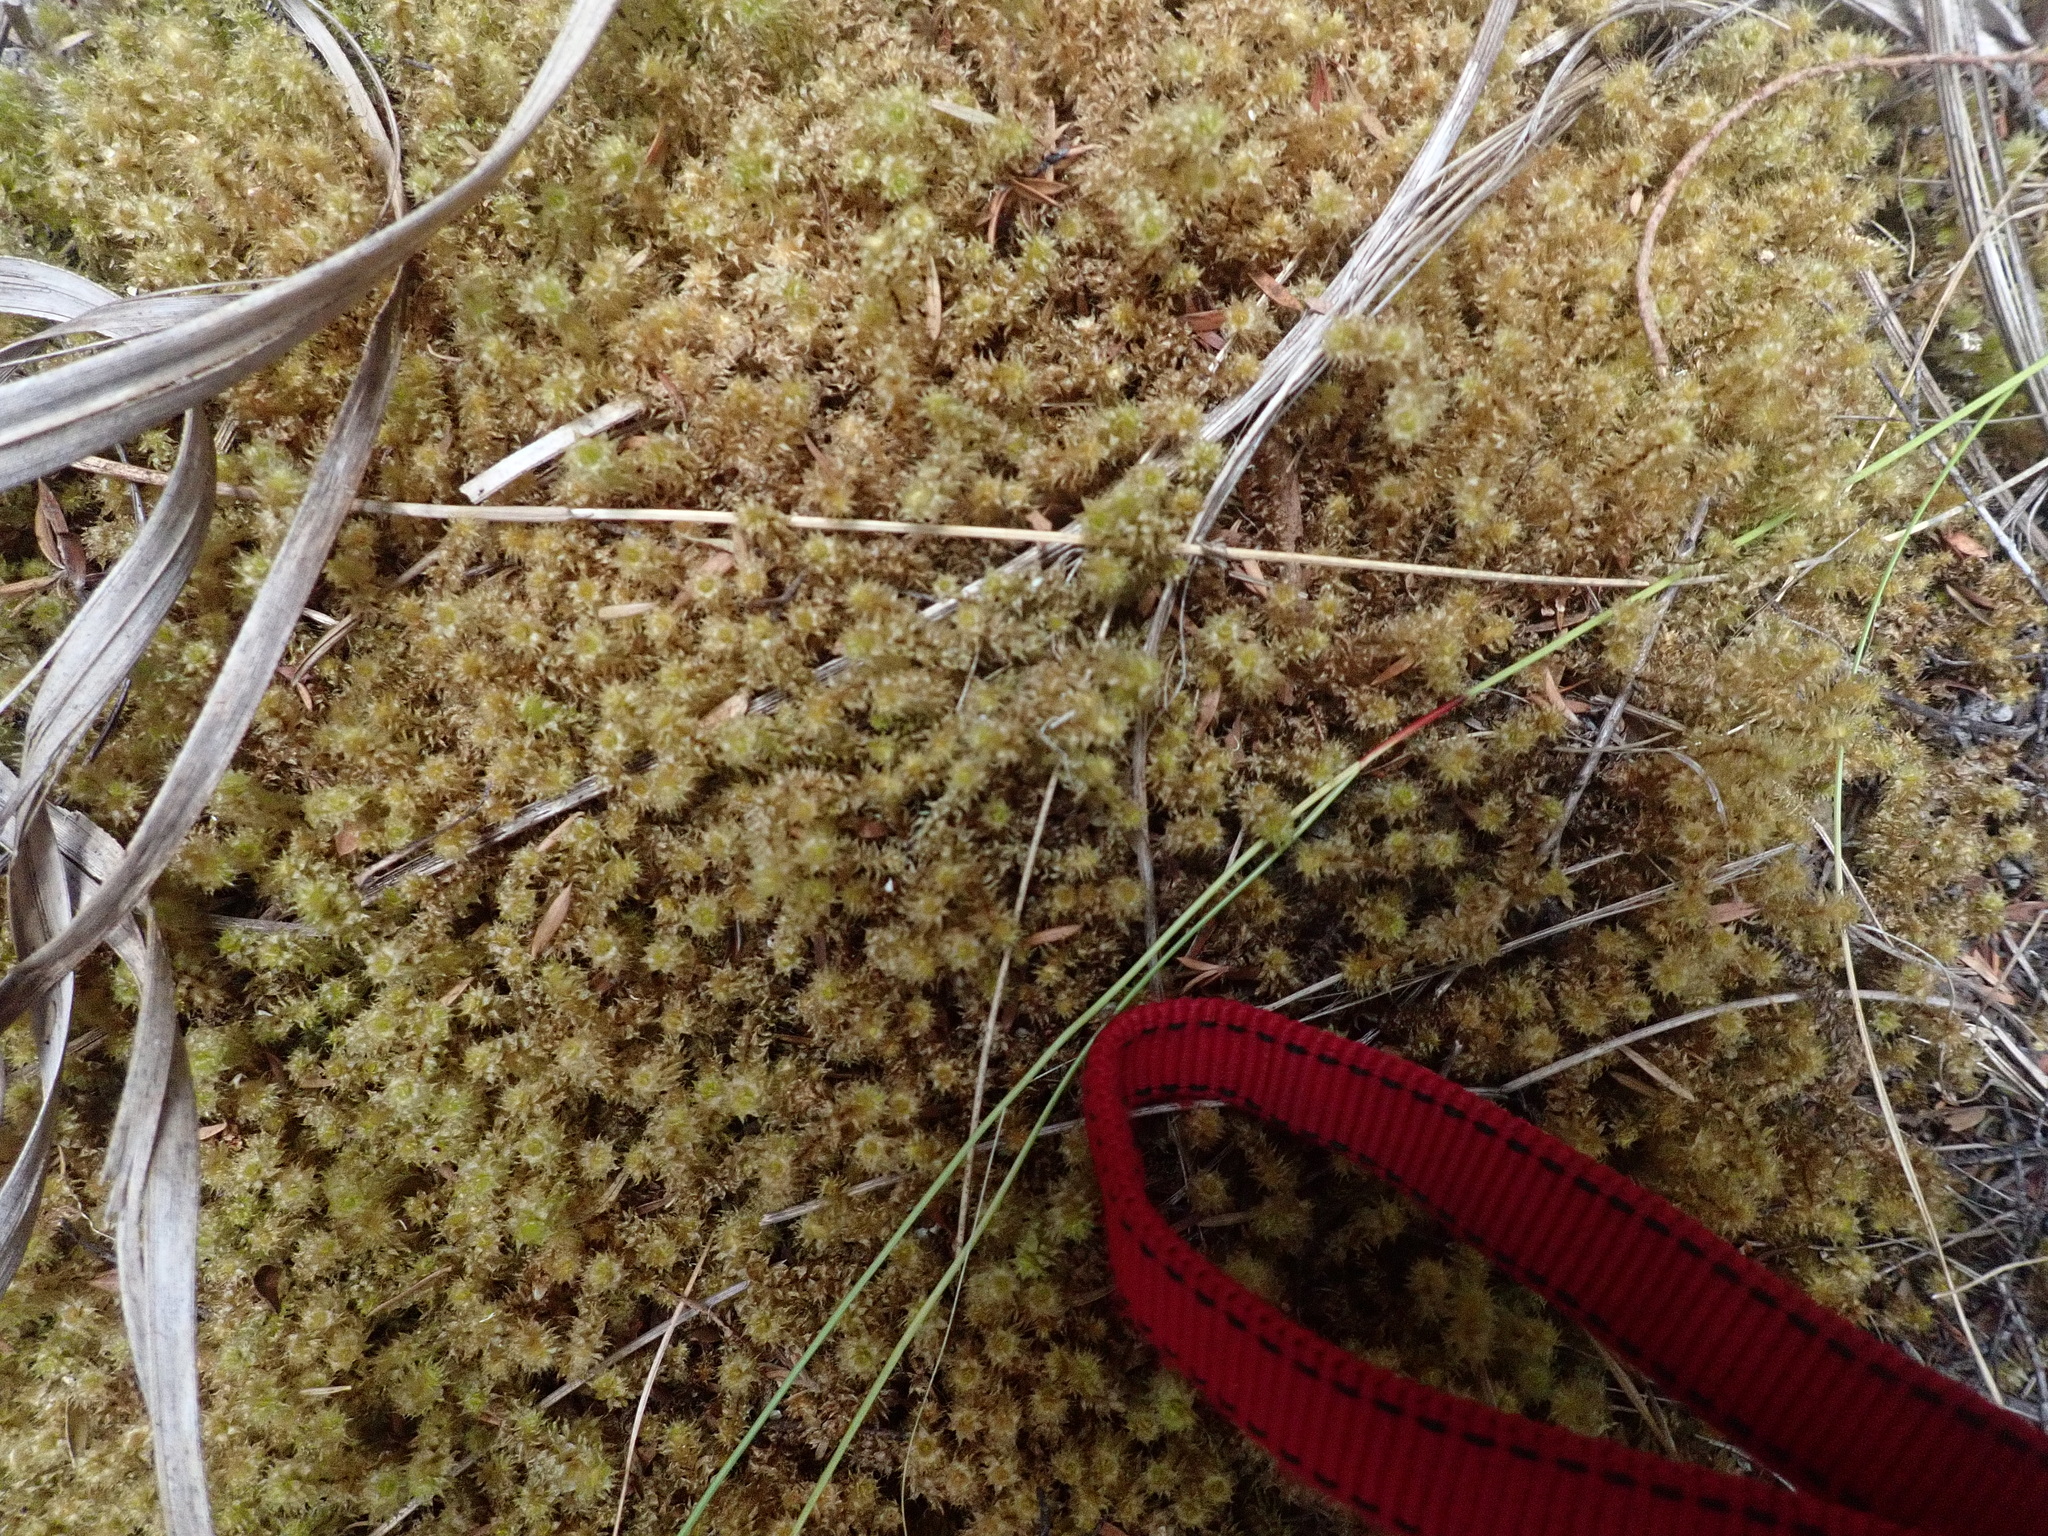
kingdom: Plantae
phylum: Bryophyta
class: Bryopsida
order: Ptychomniales
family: Ptychomniaceae
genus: Ptychomnion
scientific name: Ptychomnion aciculare
